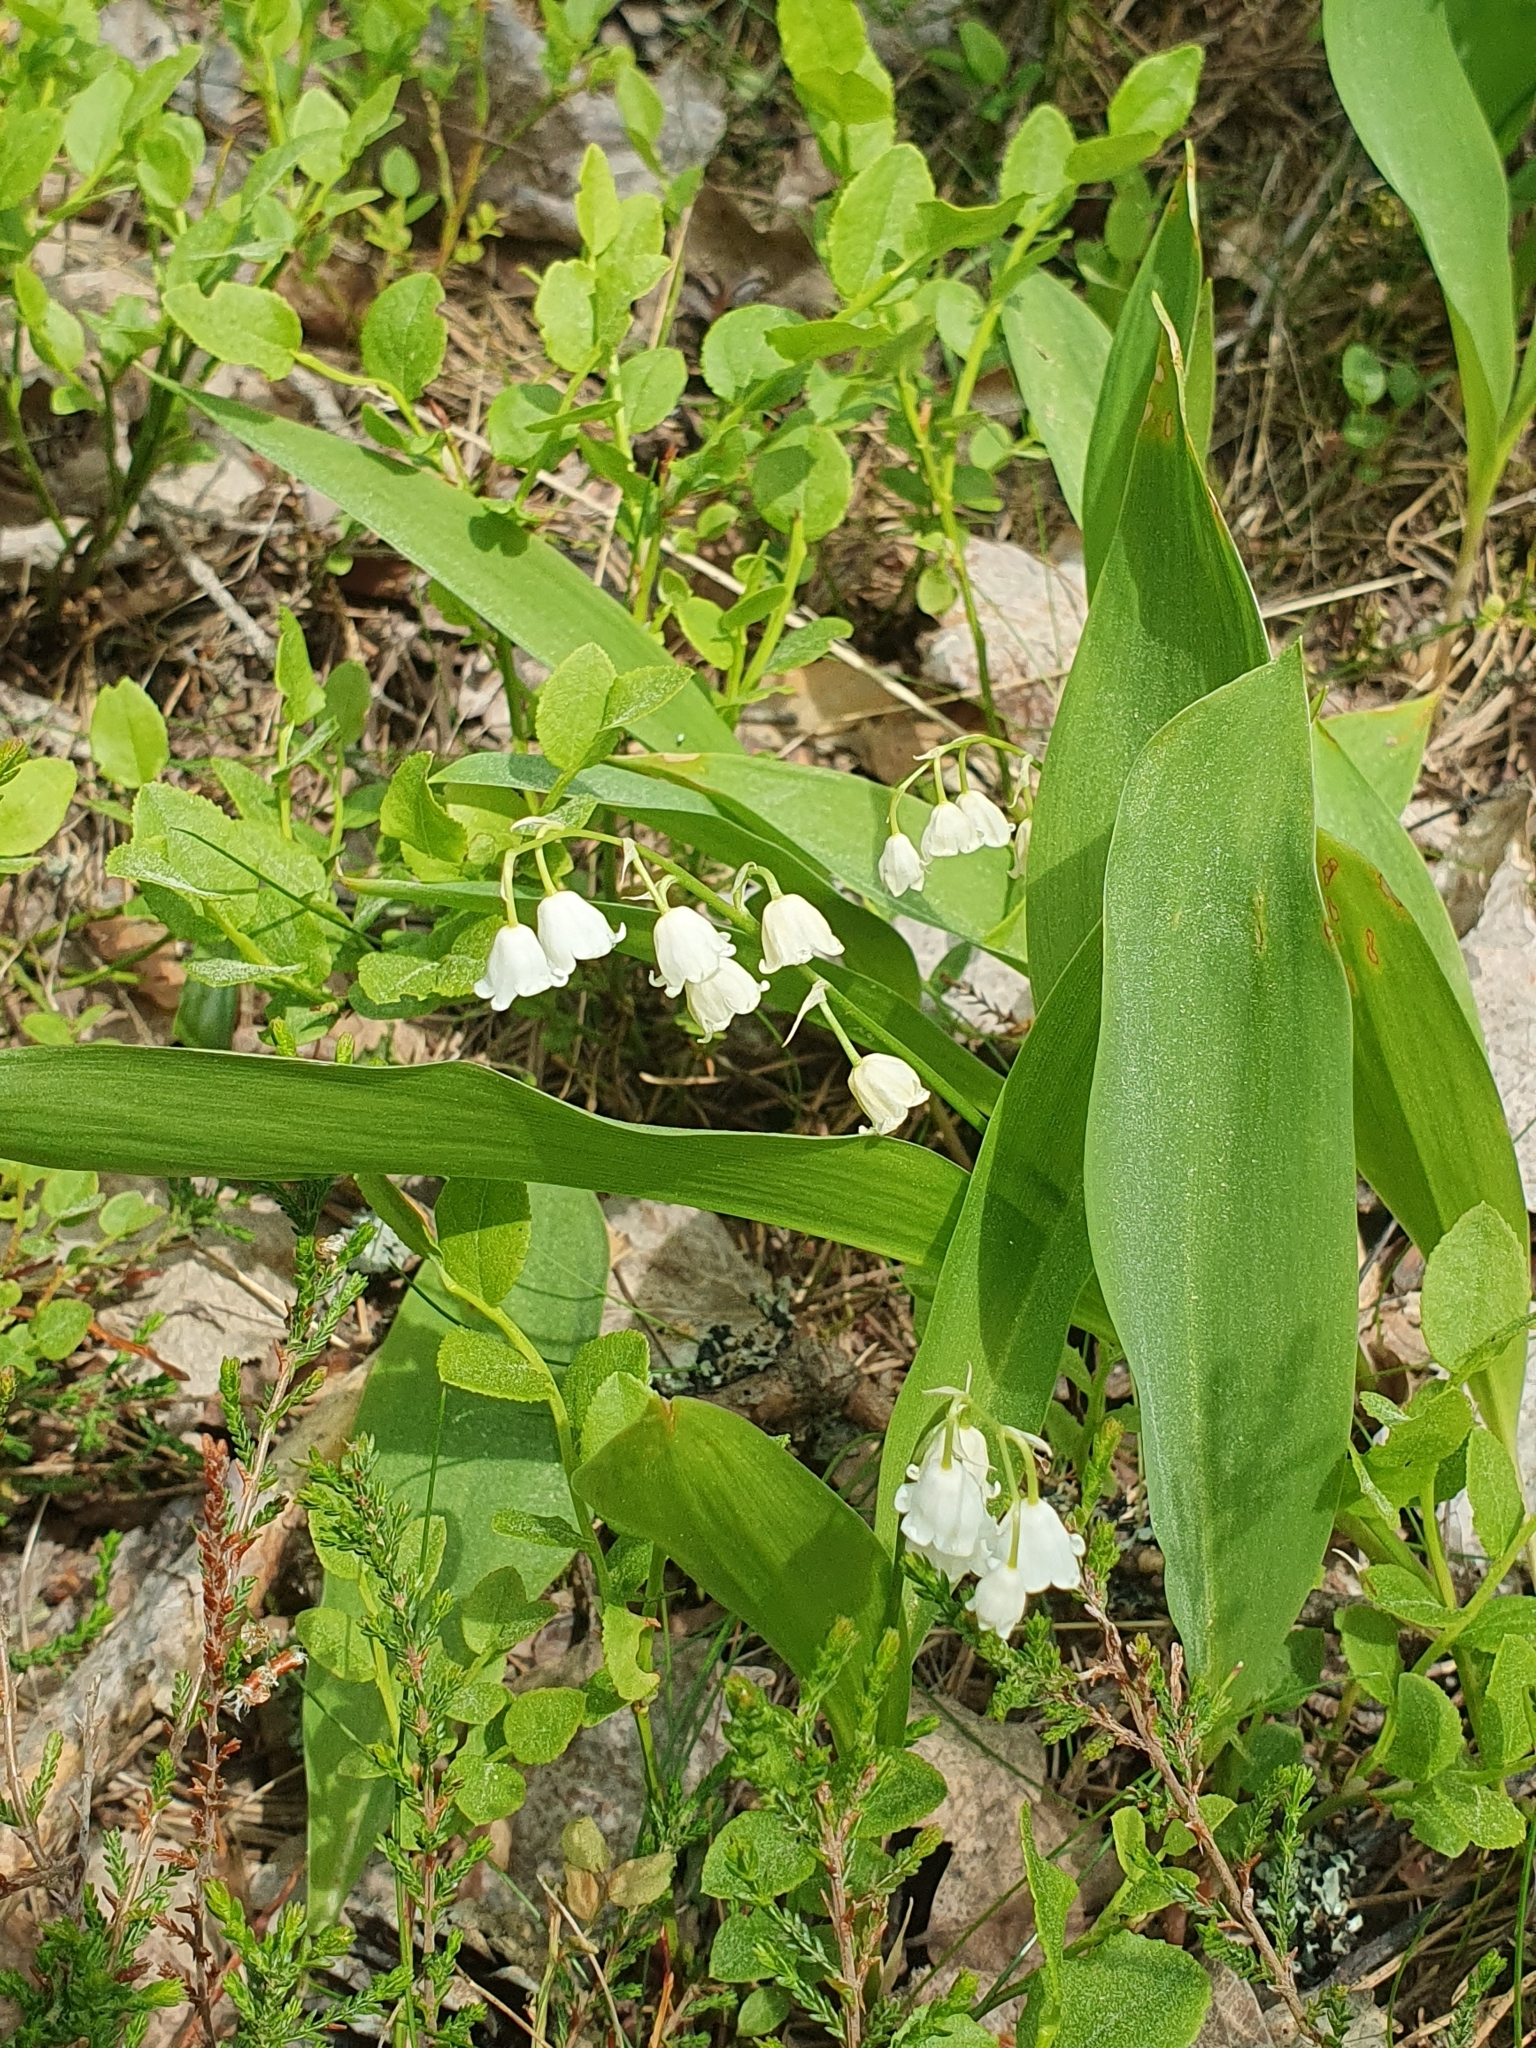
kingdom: Plantae
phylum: Tracheophyta
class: Liliopsida
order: Asparagales
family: Asparagaceae
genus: Convallaria
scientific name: Convallaria majalis
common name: Lily-of-the-valley
